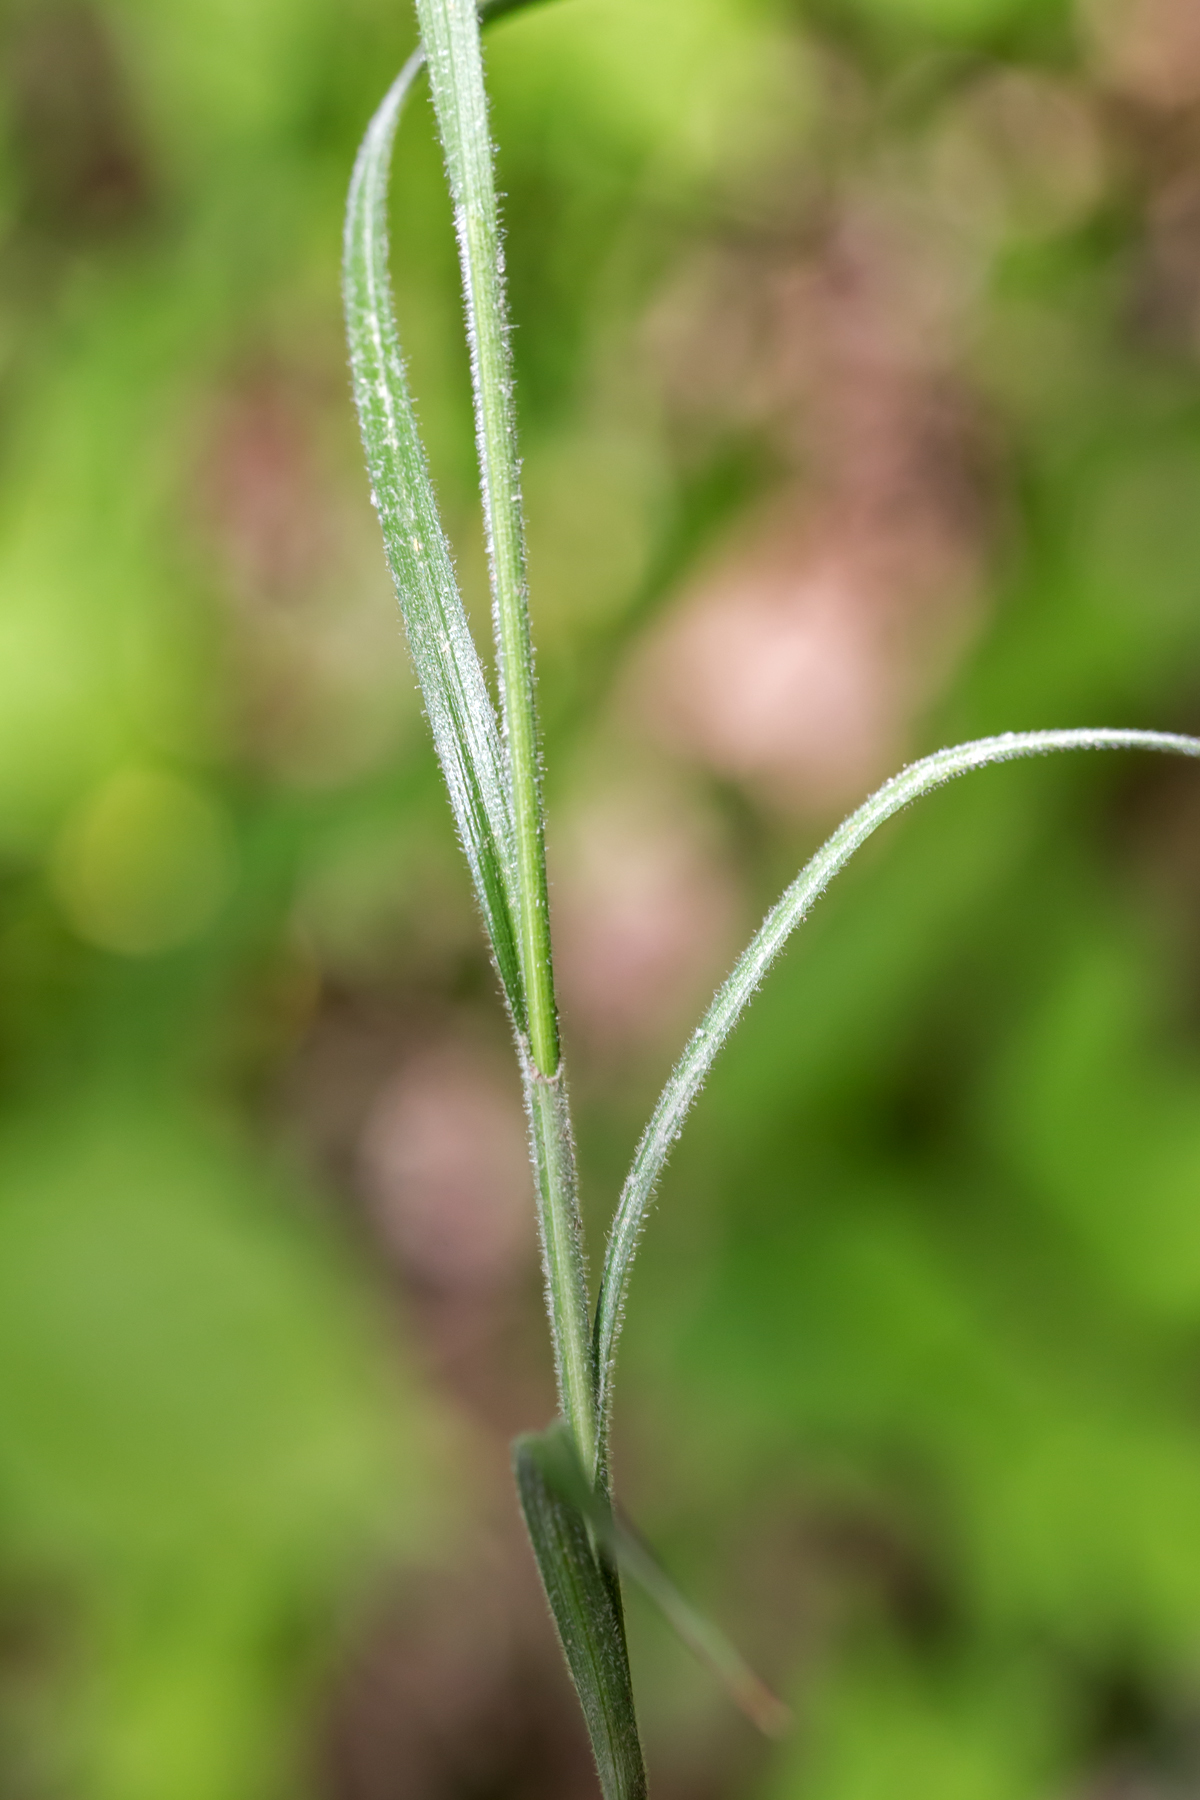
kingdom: Plantae
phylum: Tracheophyta
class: Liliopsida
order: Poales
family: Cyperaceae
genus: Carex
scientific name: Carex hirsutella
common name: Fuzzy wuzzy sedge
